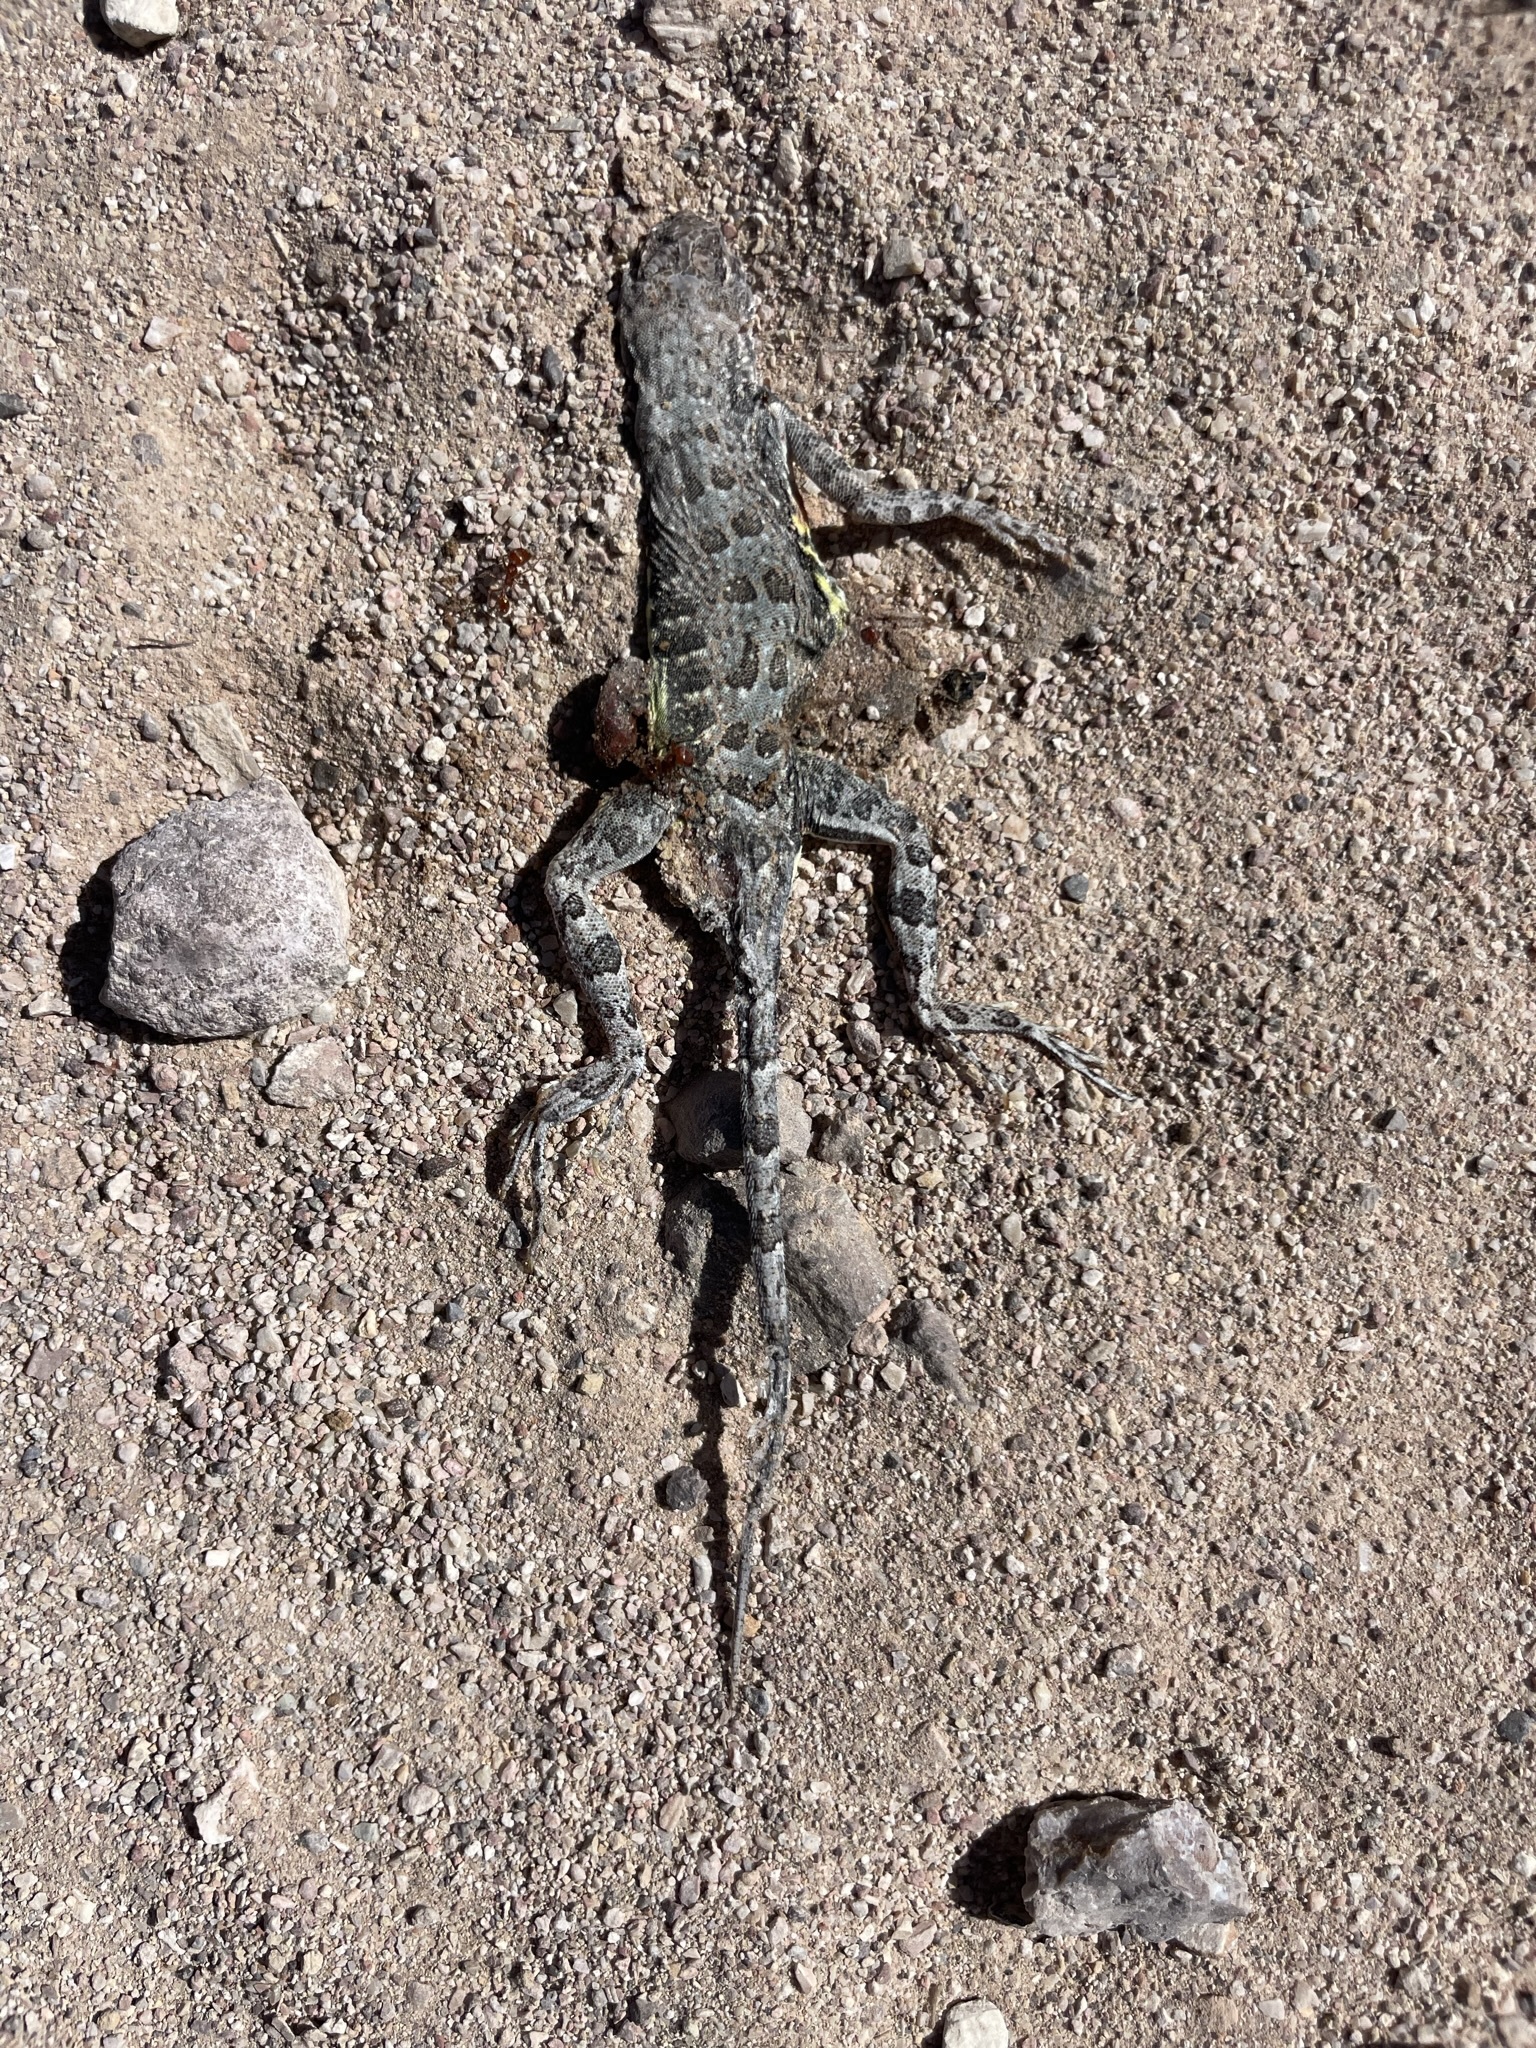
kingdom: Animalia
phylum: Chordata
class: Squamata
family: Phrynosomatidae
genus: Callisaurus
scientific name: Callisaurus draconoides
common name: Zebra-tailed lizard
